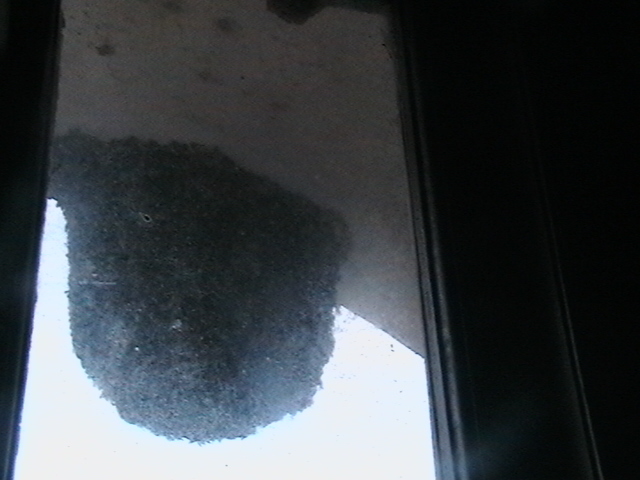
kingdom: Animalia
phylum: Arthropoda
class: Insecta
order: Hymenoptera
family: Apidae
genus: Apis
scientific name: Apis dorsata
